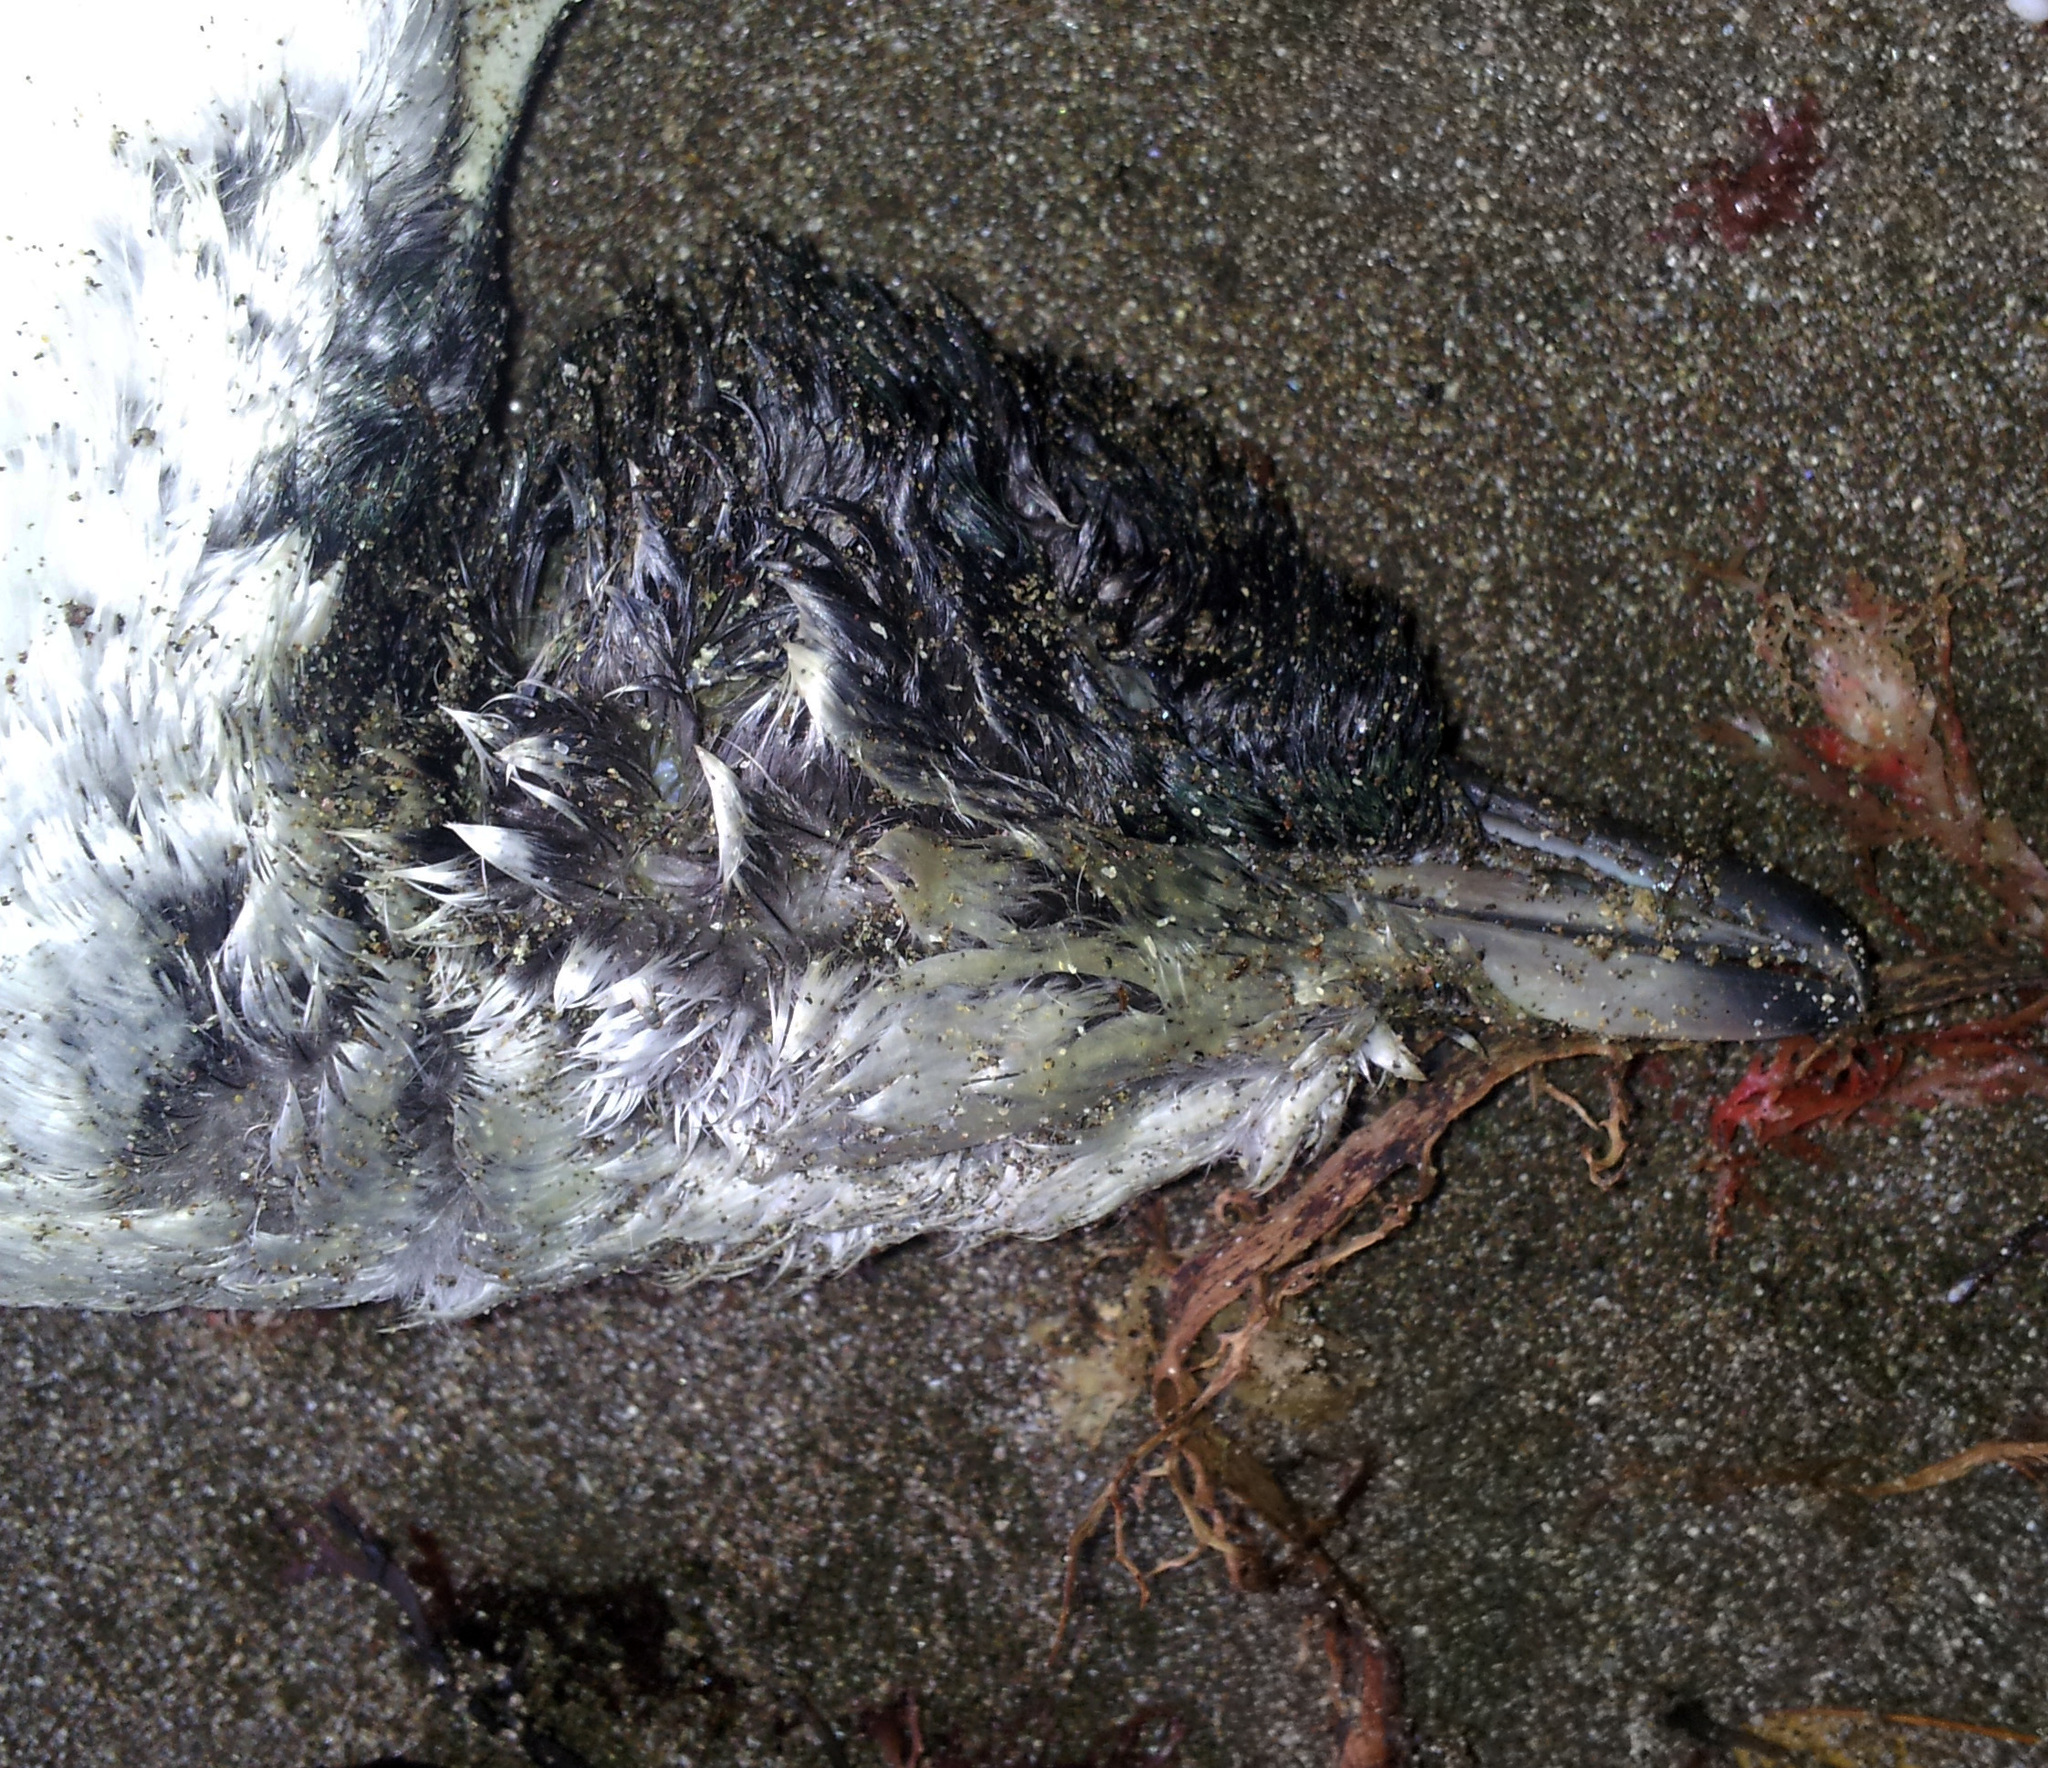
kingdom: Animalia
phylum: Chordata
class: Aves
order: Sphenisciformes
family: Spheniscidae
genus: Eudyptula
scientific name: Eudyptula minor
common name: Little penguin
